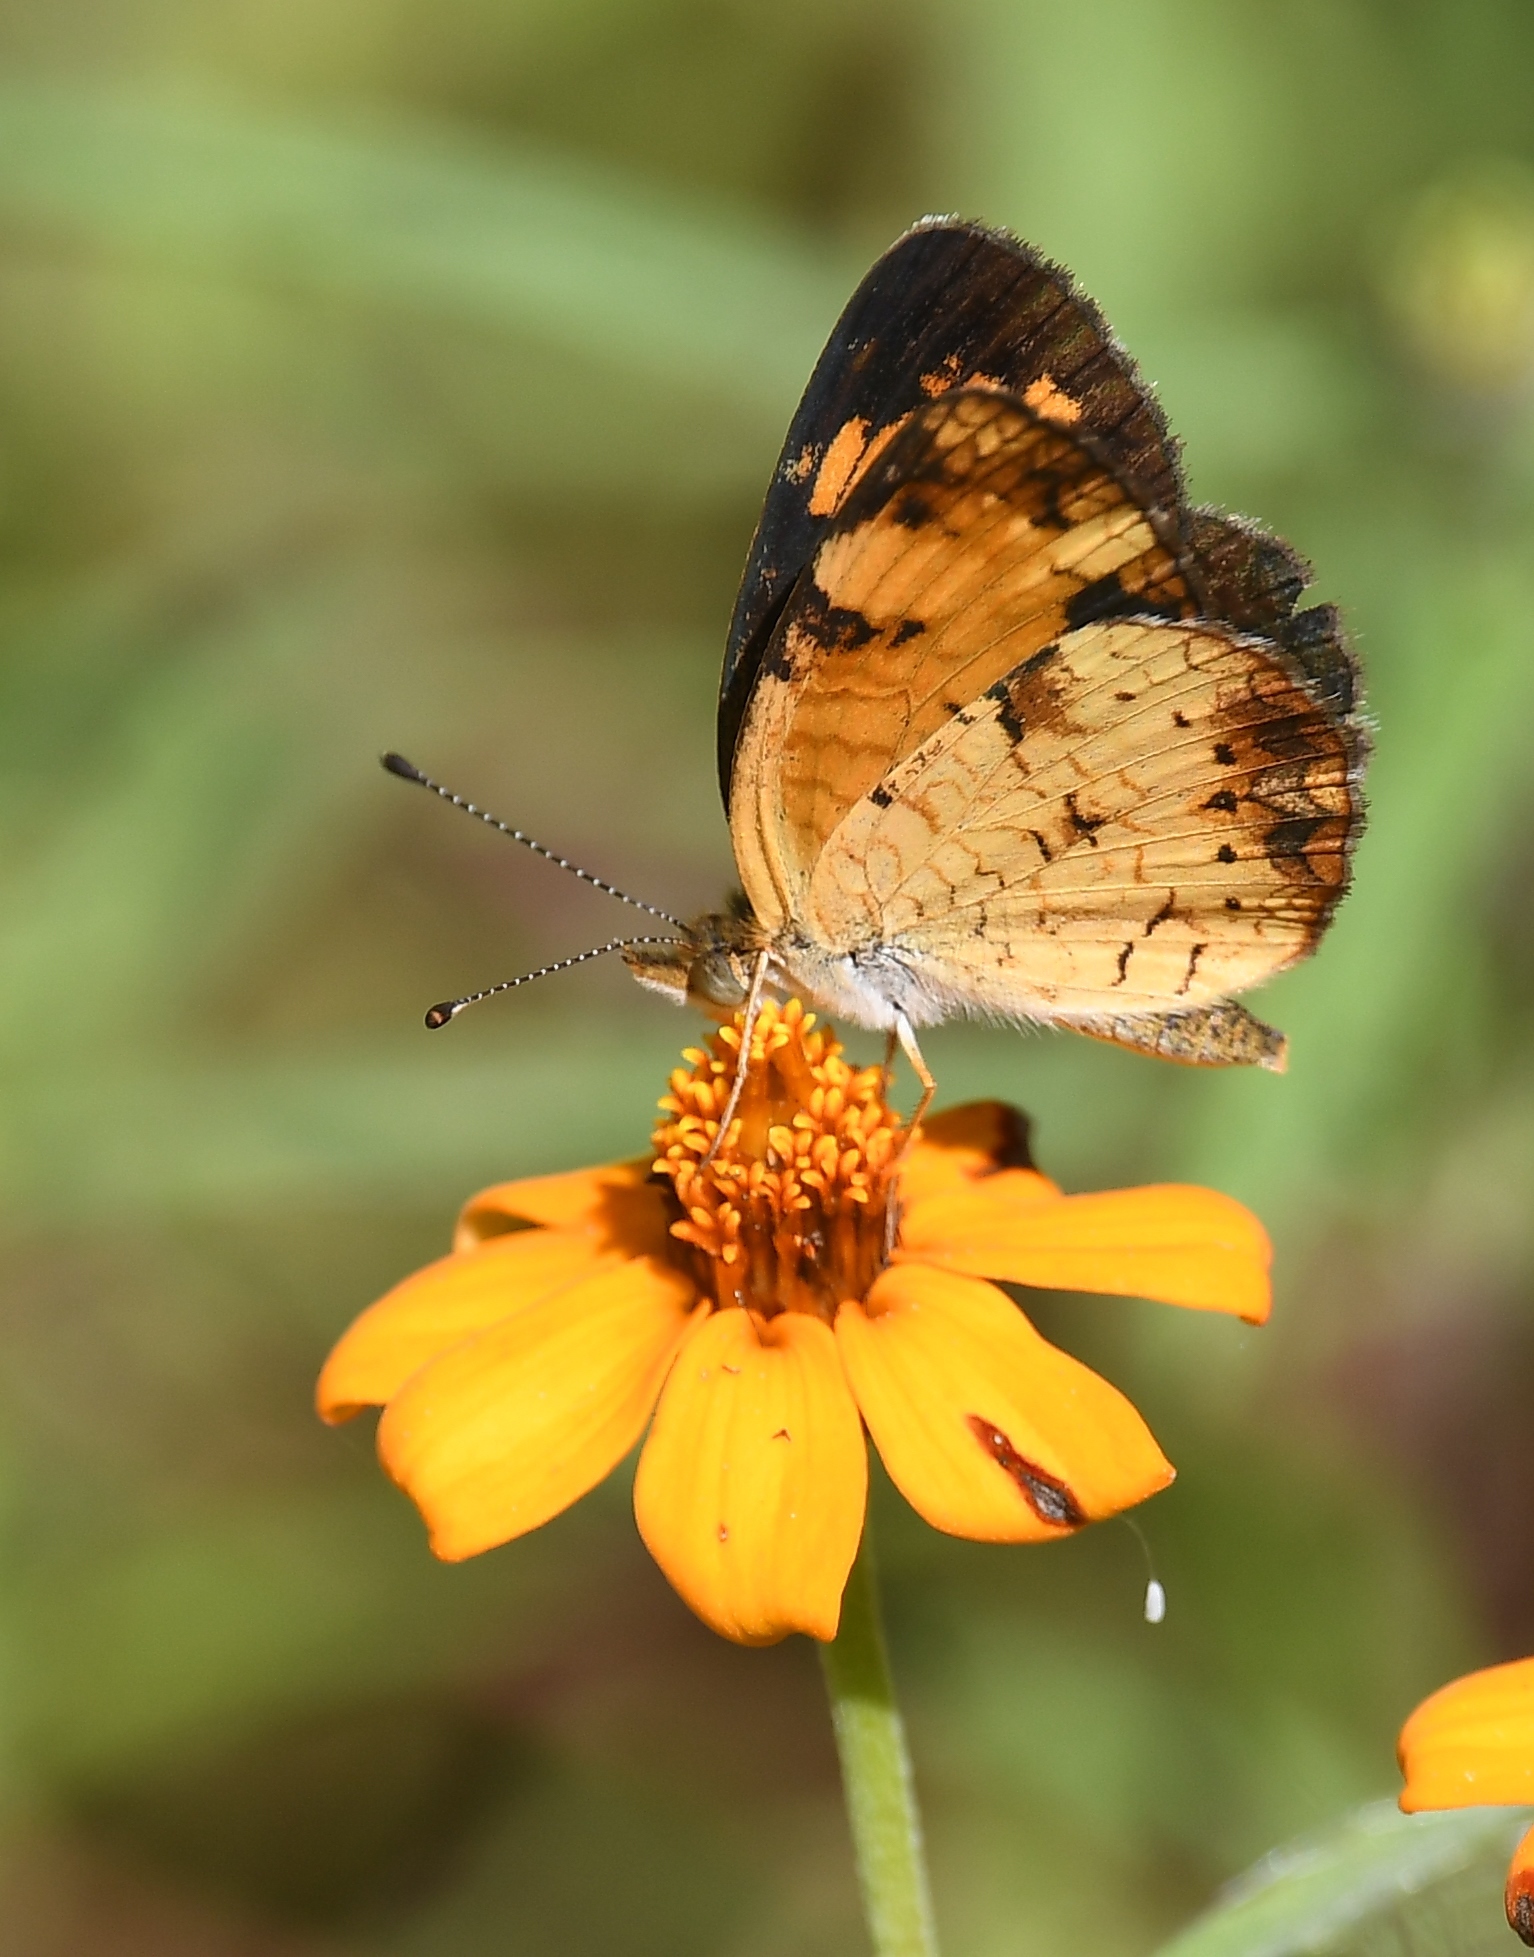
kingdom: Animalia
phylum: Arthropoda
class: Insecta
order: Lepidoptera
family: Nymphalidae
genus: Phyciodes
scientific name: Phyciodes tharos
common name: Pearl crescent
